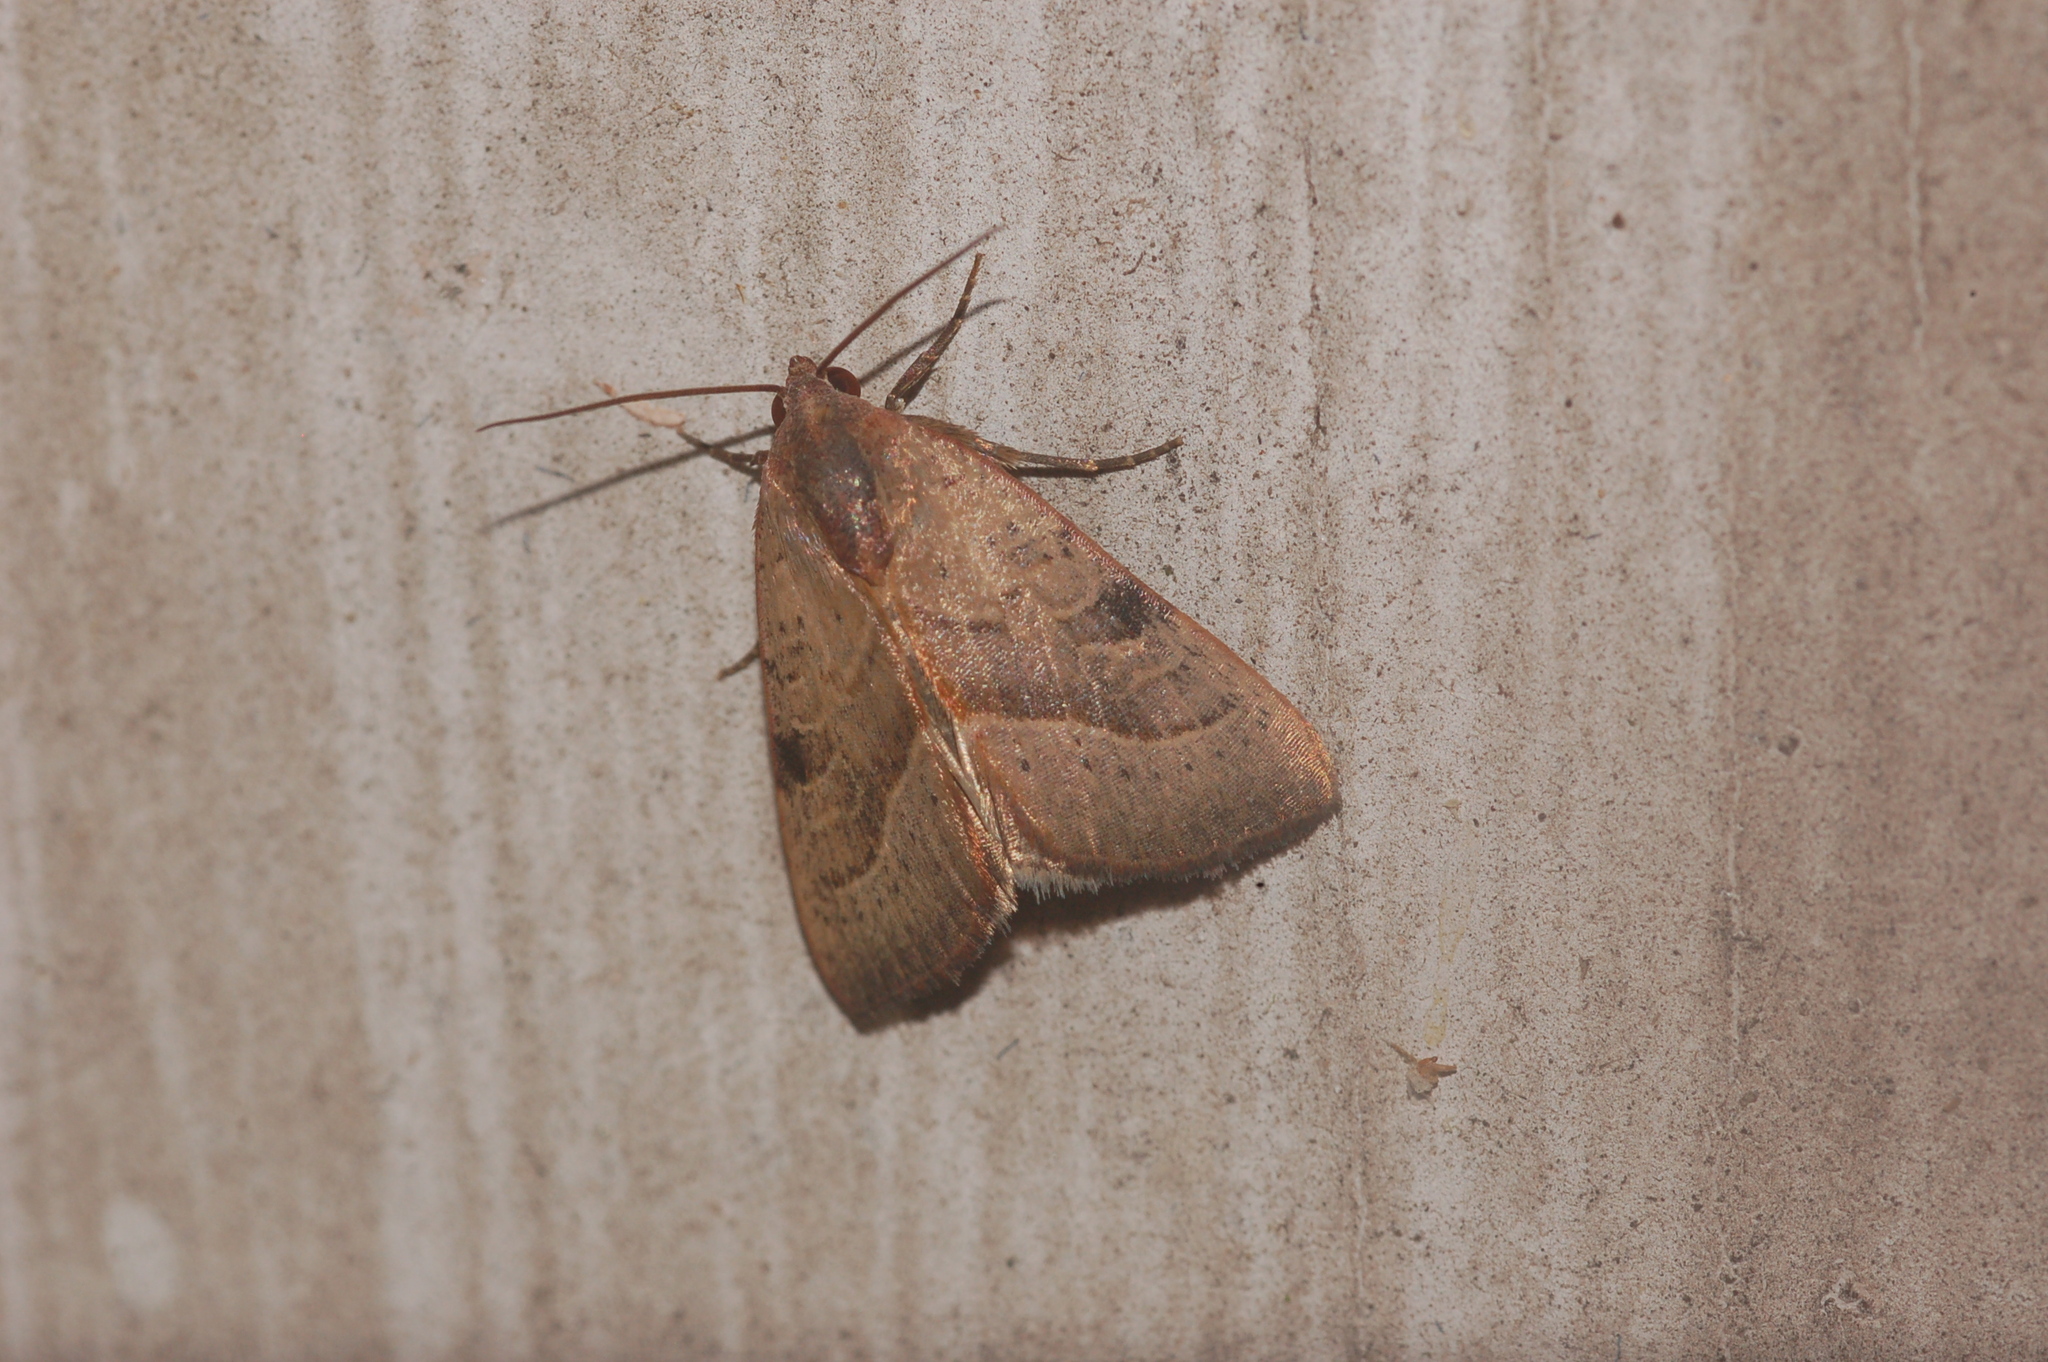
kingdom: Animalia
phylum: Arthropoda
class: Insecta
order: Lepidoptera
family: Noctuidae
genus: Galgula
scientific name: Galgula partita
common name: Wedgeling
